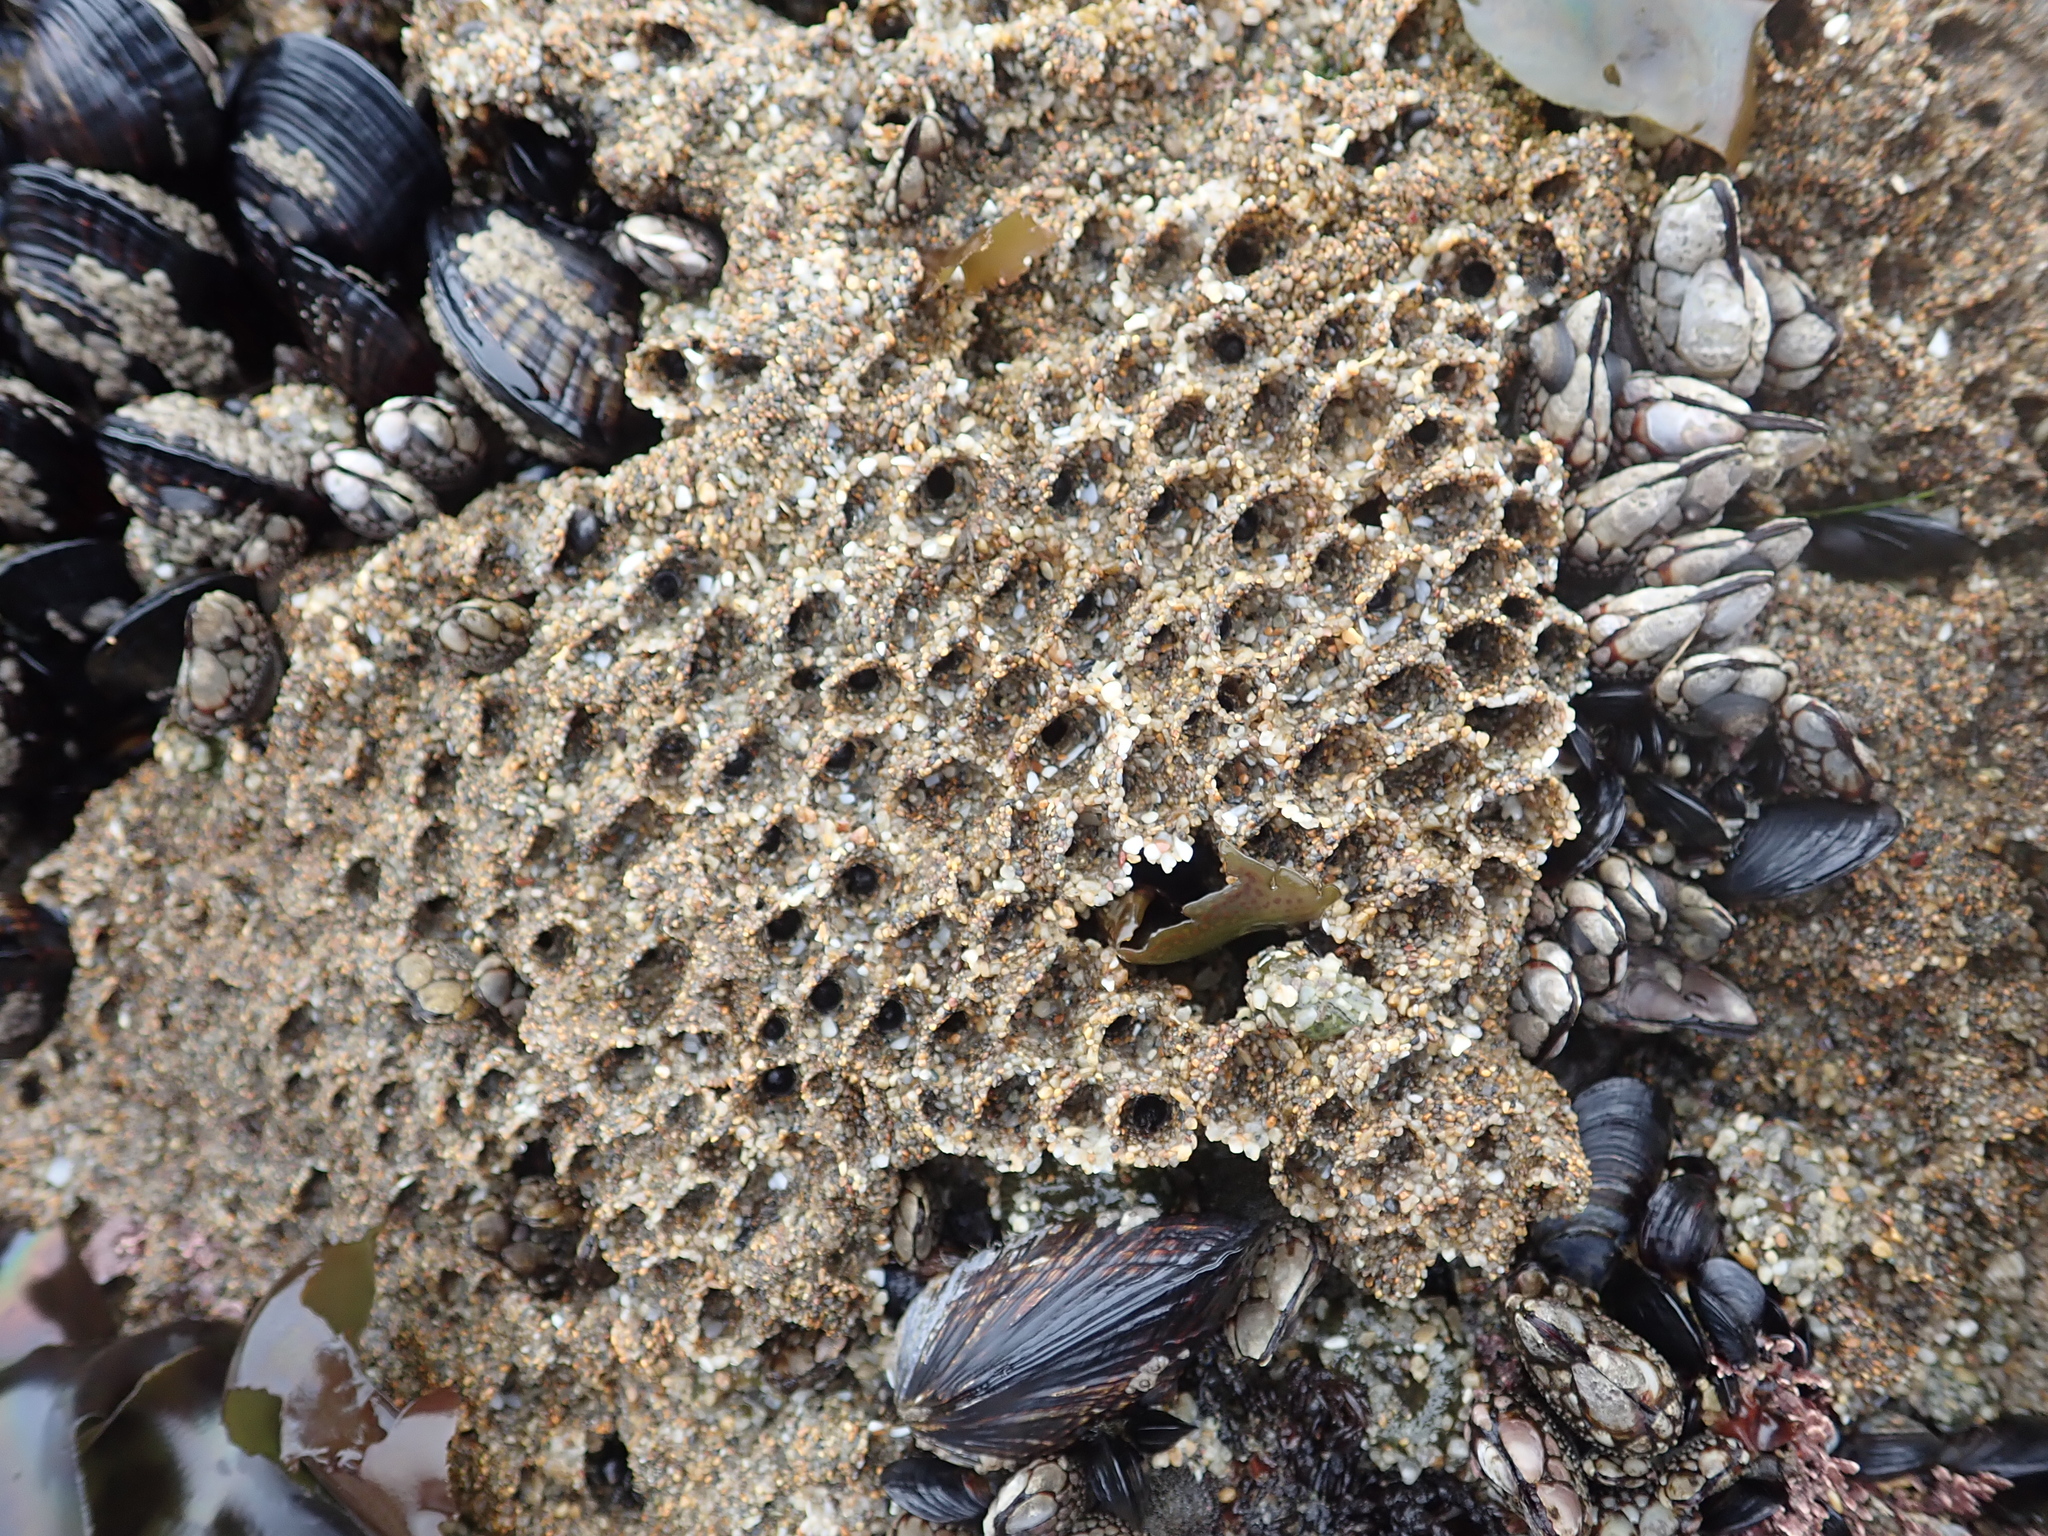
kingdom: Animalia
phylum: Annelida
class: Polychaeta
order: Sabellida
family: Sabellariidae
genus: Phragmatopoma
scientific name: Phragmatopoma californica
